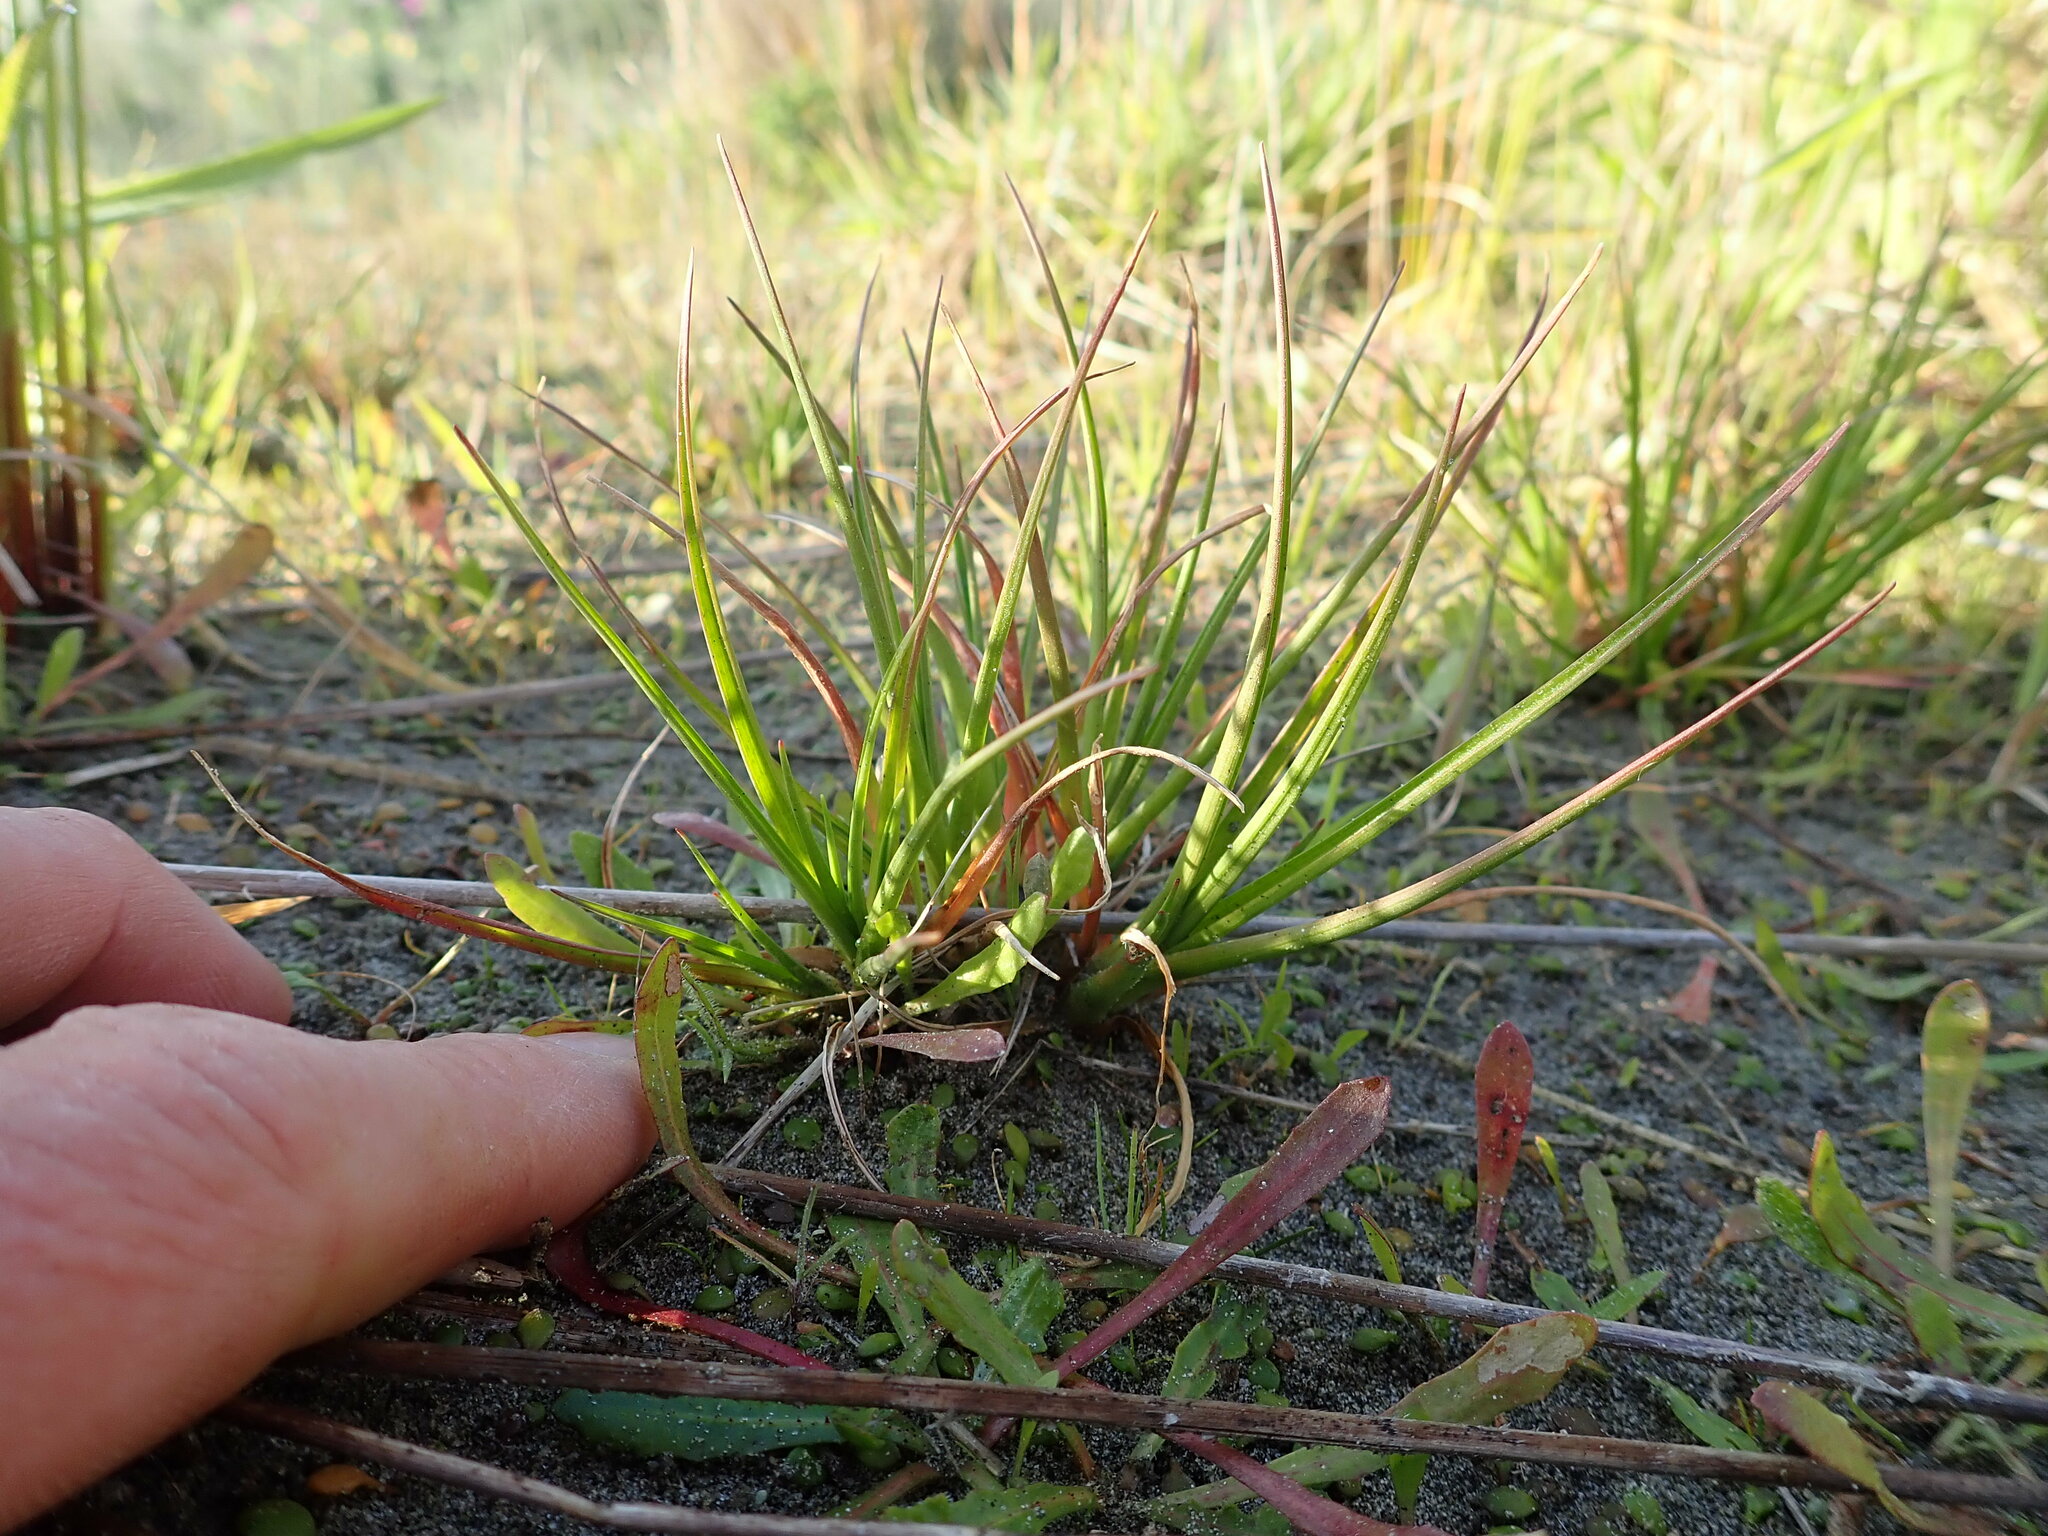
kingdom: Plantae
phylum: Tracheophyta
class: Liliopsida
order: Poales
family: Juncaceae
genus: Juncus
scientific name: Juncus caespiticius
